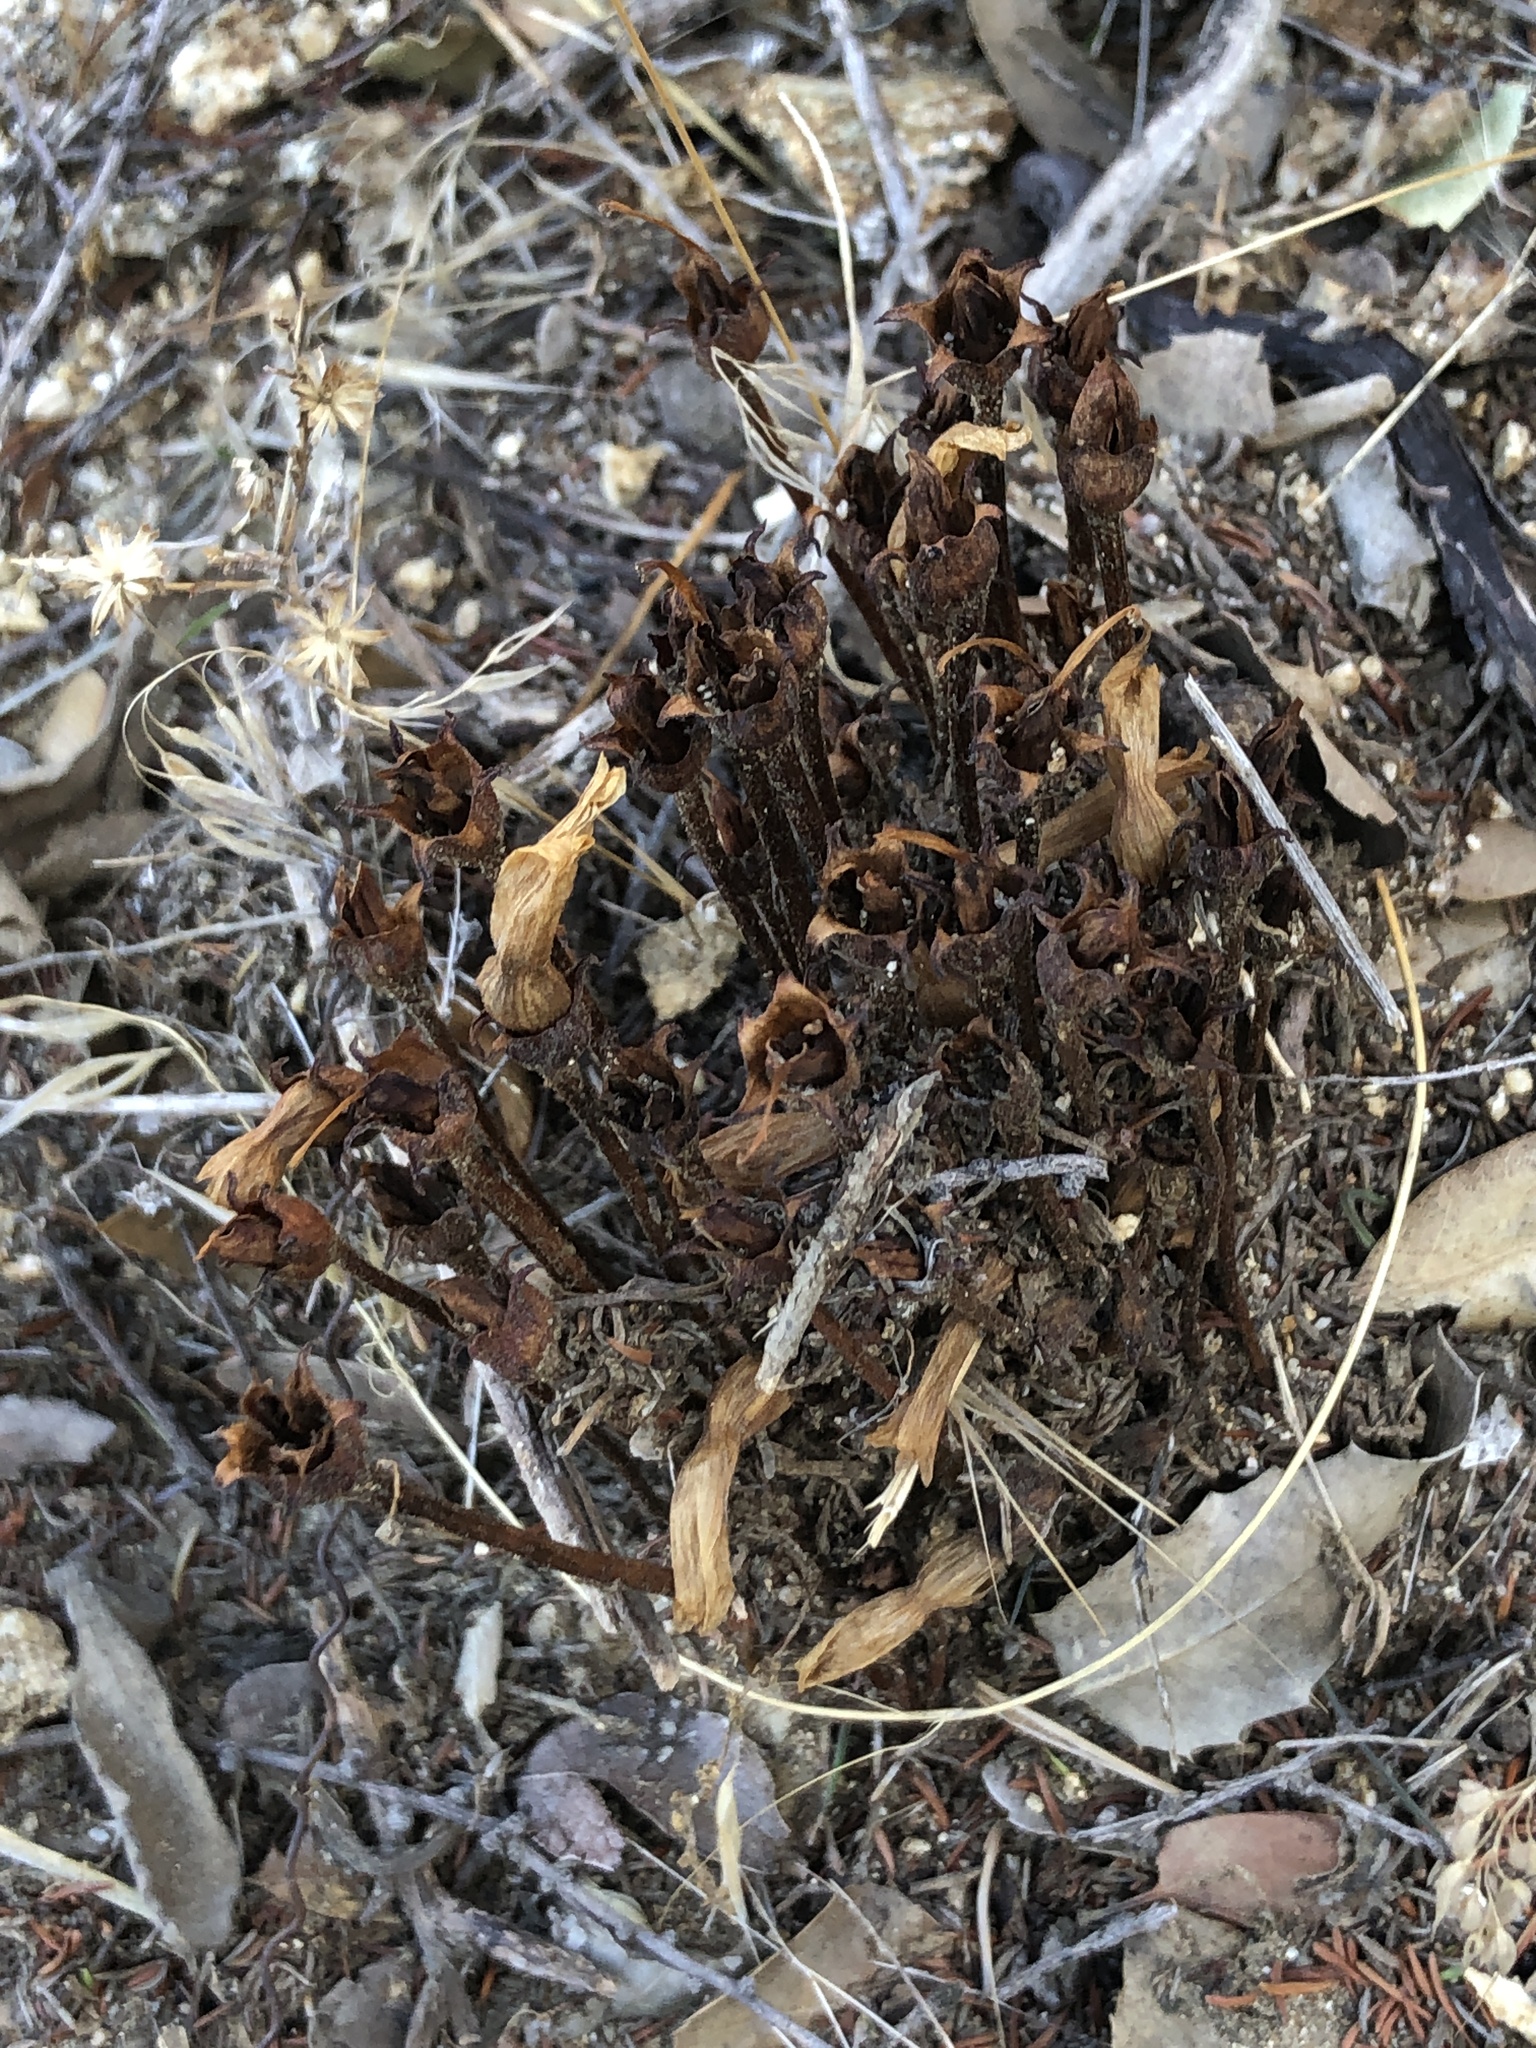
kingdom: Plantae
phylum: Tracheophyta
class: Magnoliopsida
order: Lamiales
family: Orobanchaceae
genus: Aphyllon
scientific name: Aphyllon franciscanum
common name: San francisco broomrape
